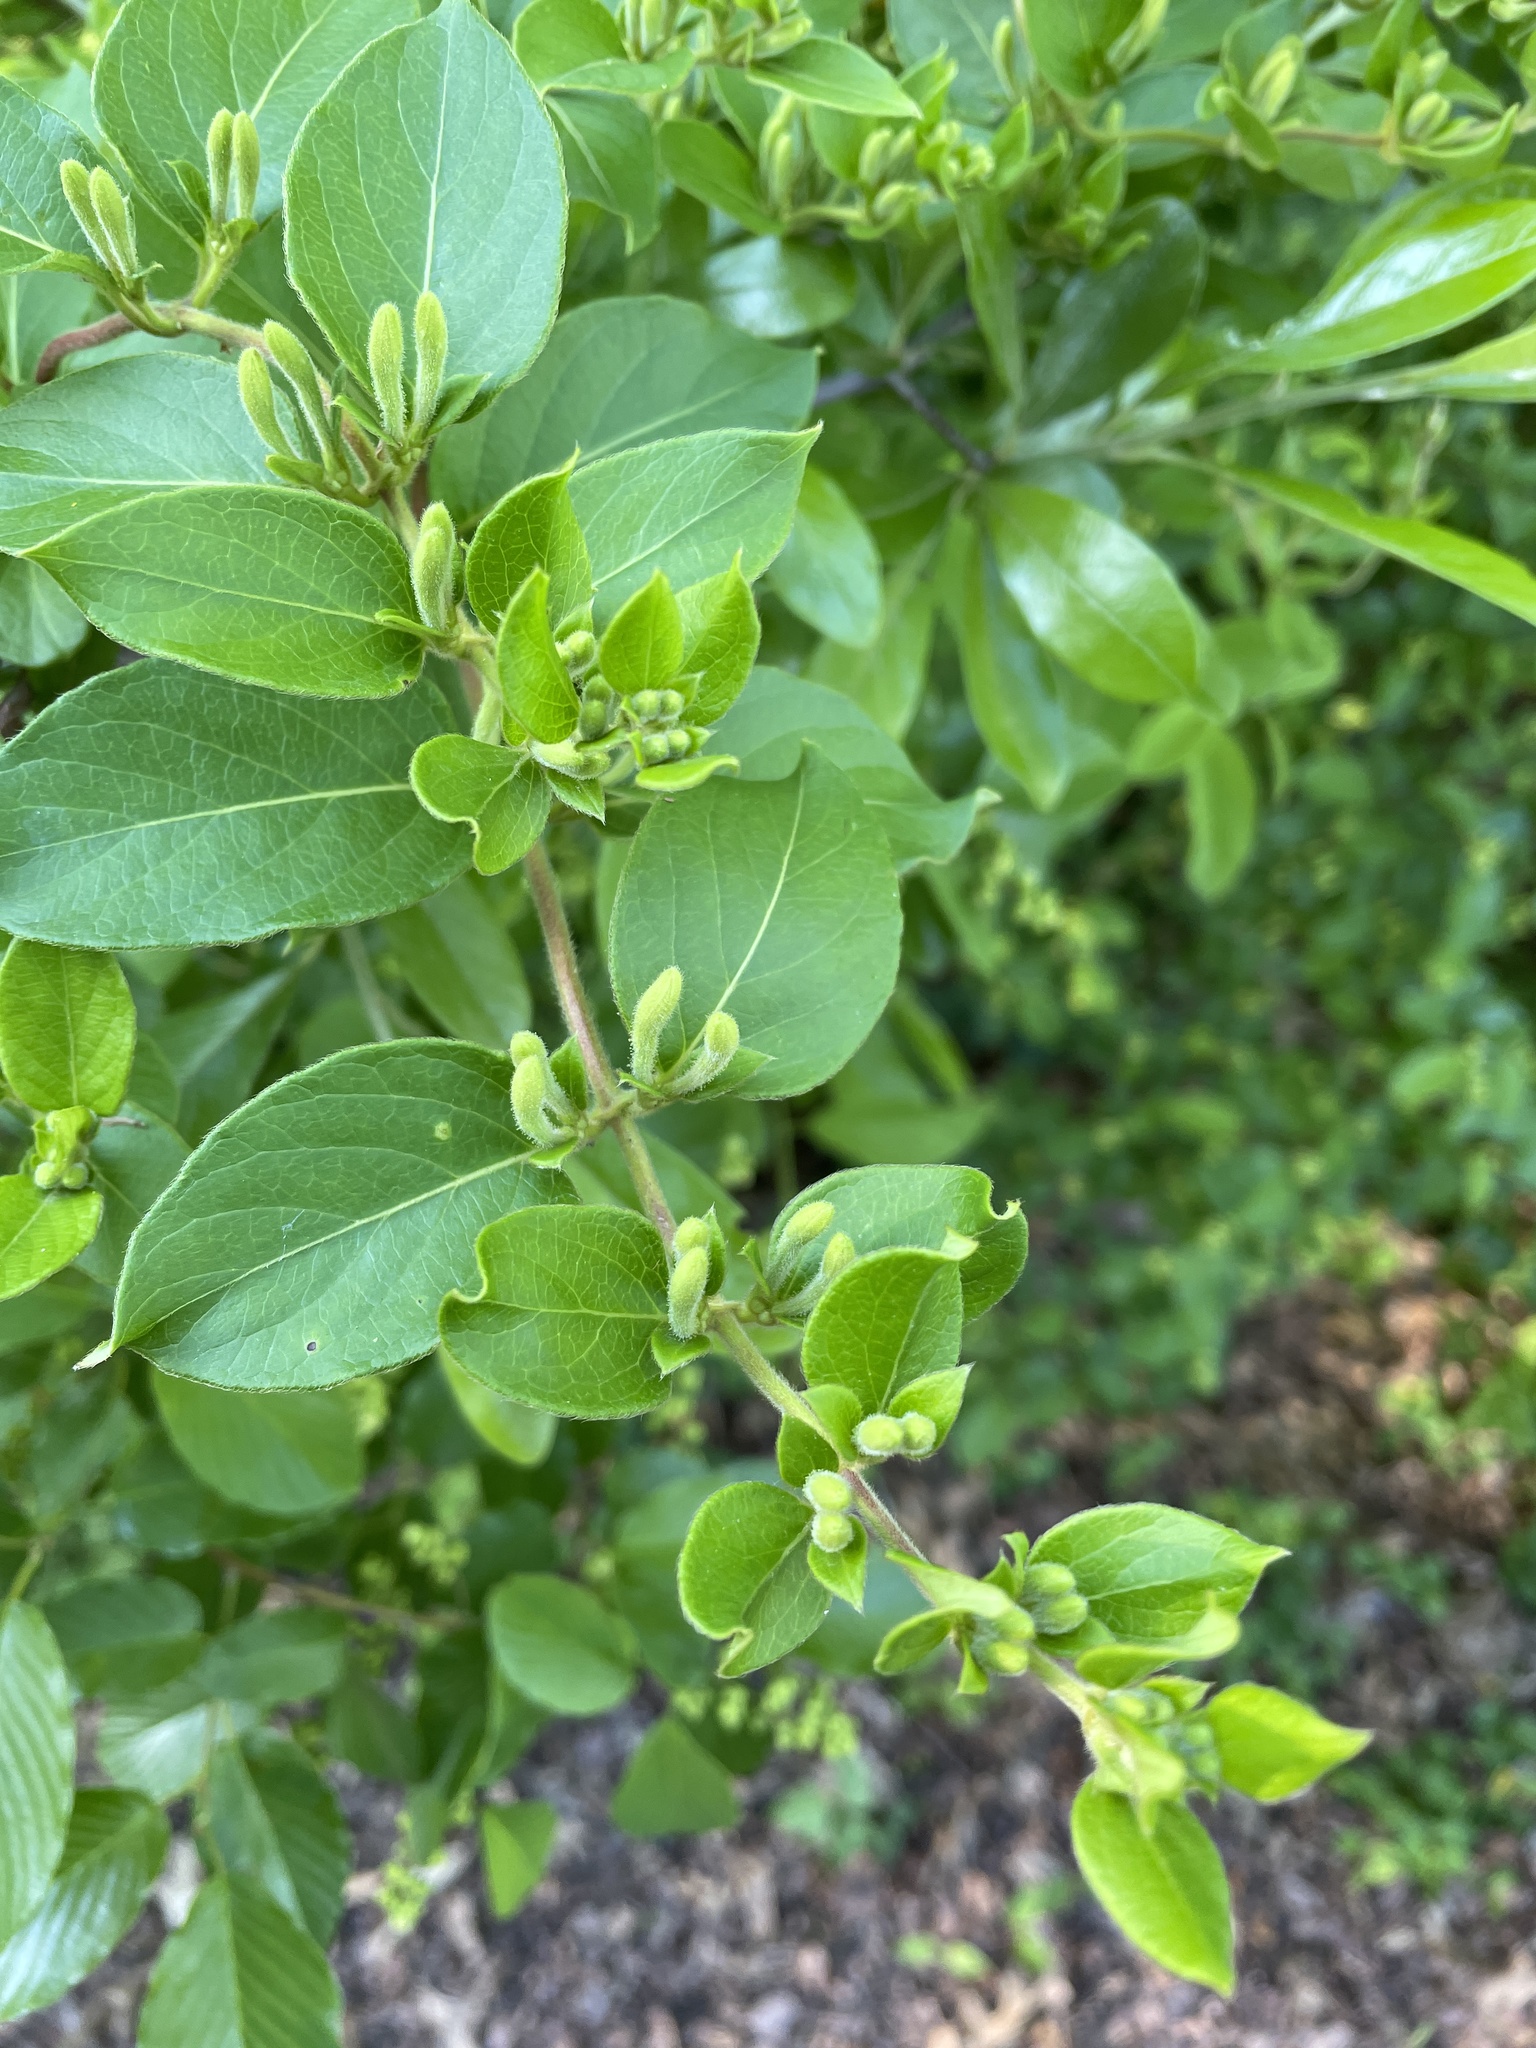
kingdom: Plantae
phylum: Tracheophyta
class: Magnoliopsida
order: Dipsacales
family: Caprifoliaceae
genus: Lonicera
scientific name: Lonicera japonica
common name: Japanese honeysuckle
